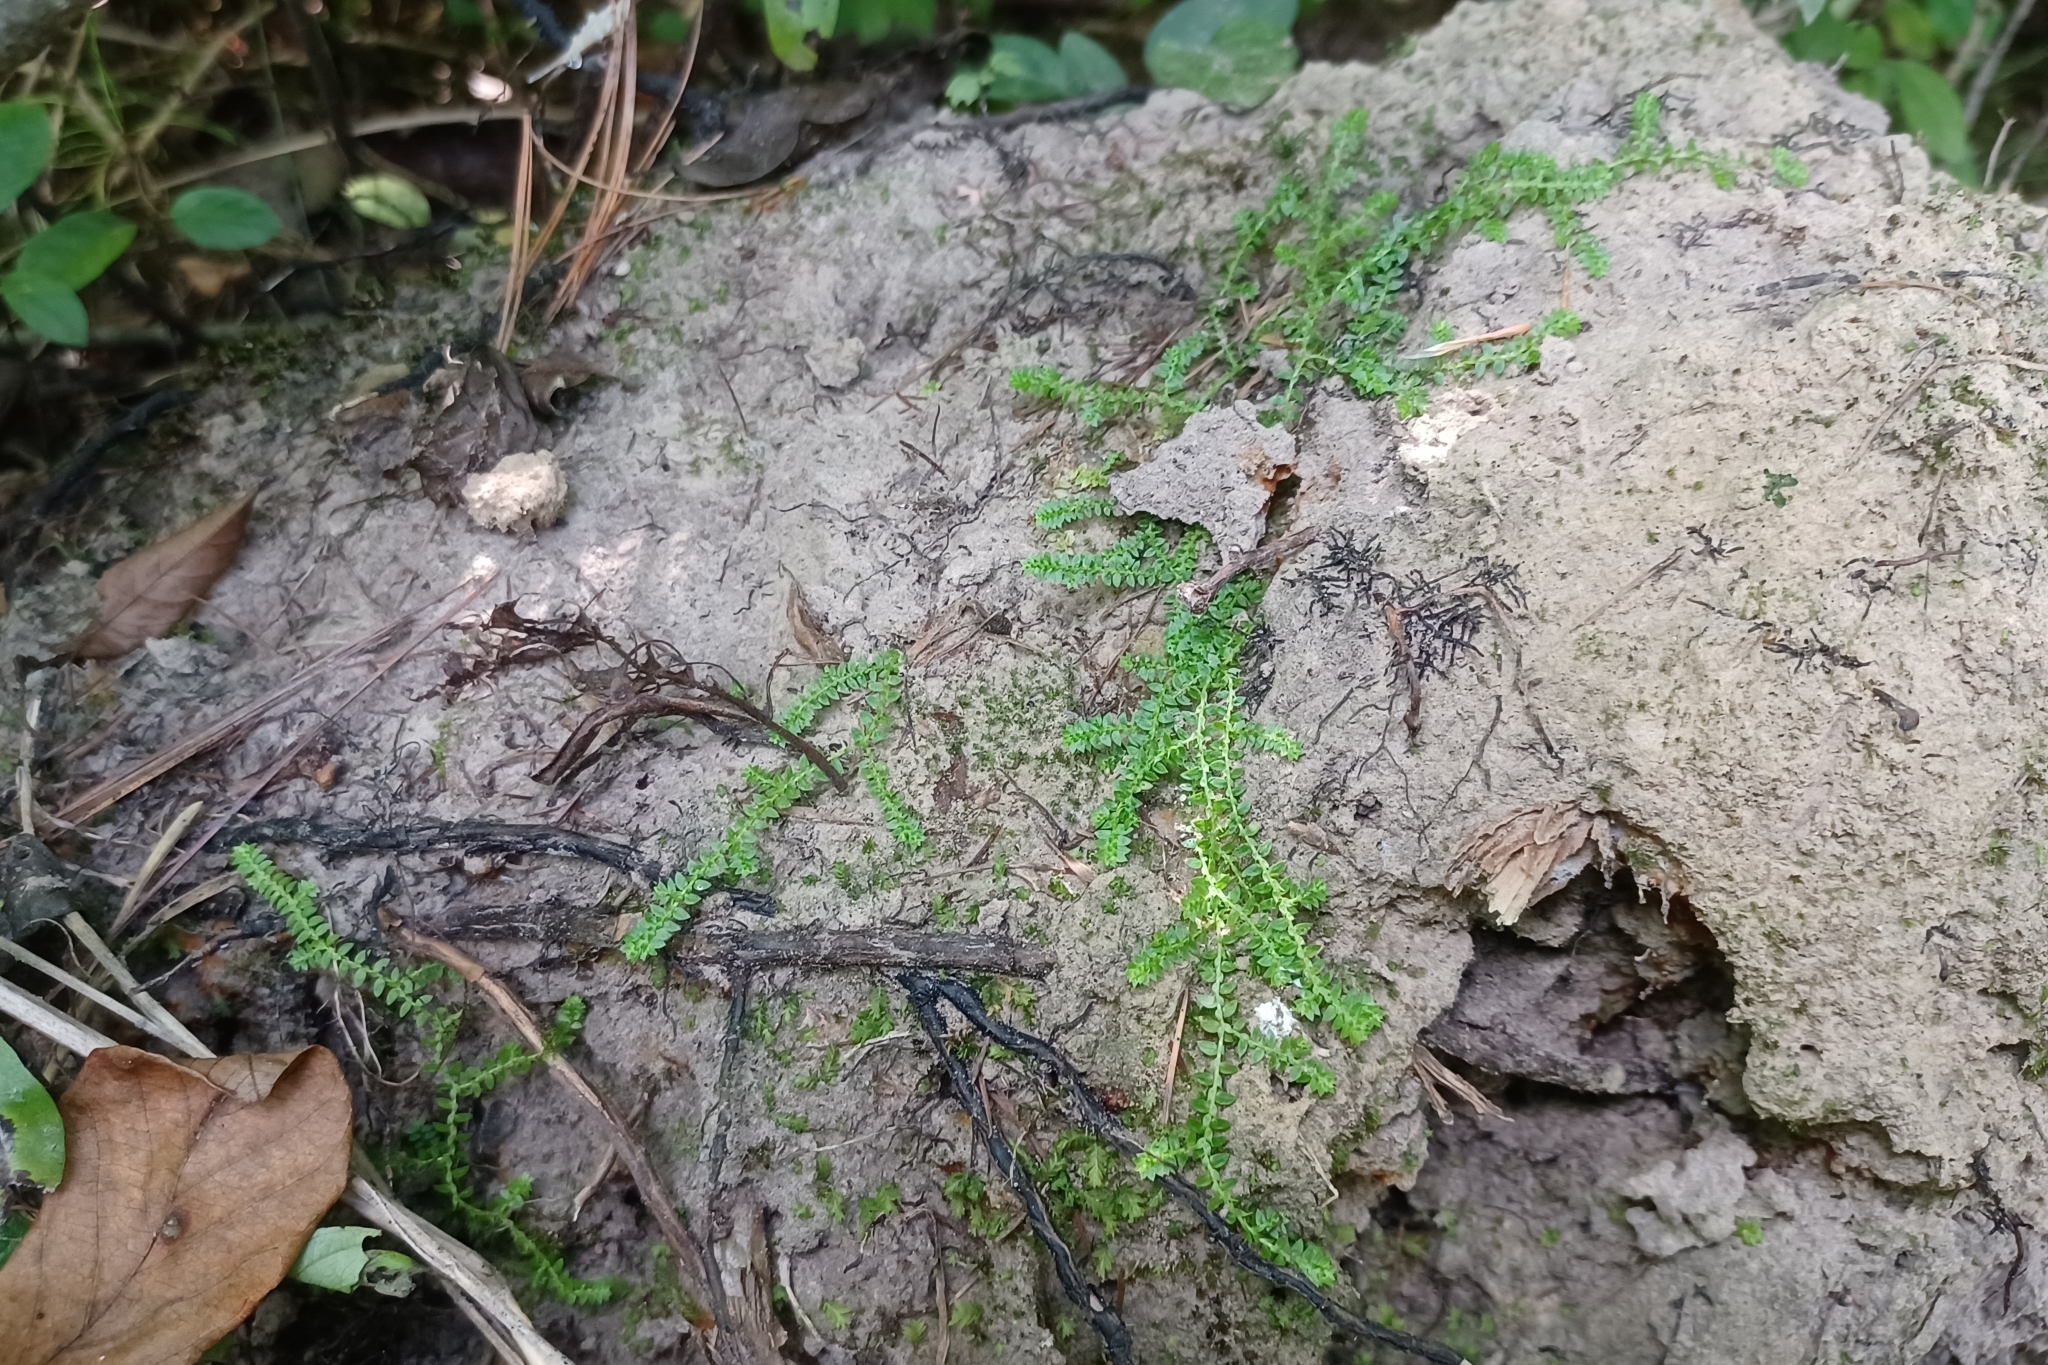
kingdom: Plantae
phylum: Tracheophyta
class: Lycopodiopsida
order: Selaginellales
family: Selaginellaceae
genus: Selaginella
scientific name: Selaginella eclipes
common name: Buck's meadow spikemoss
